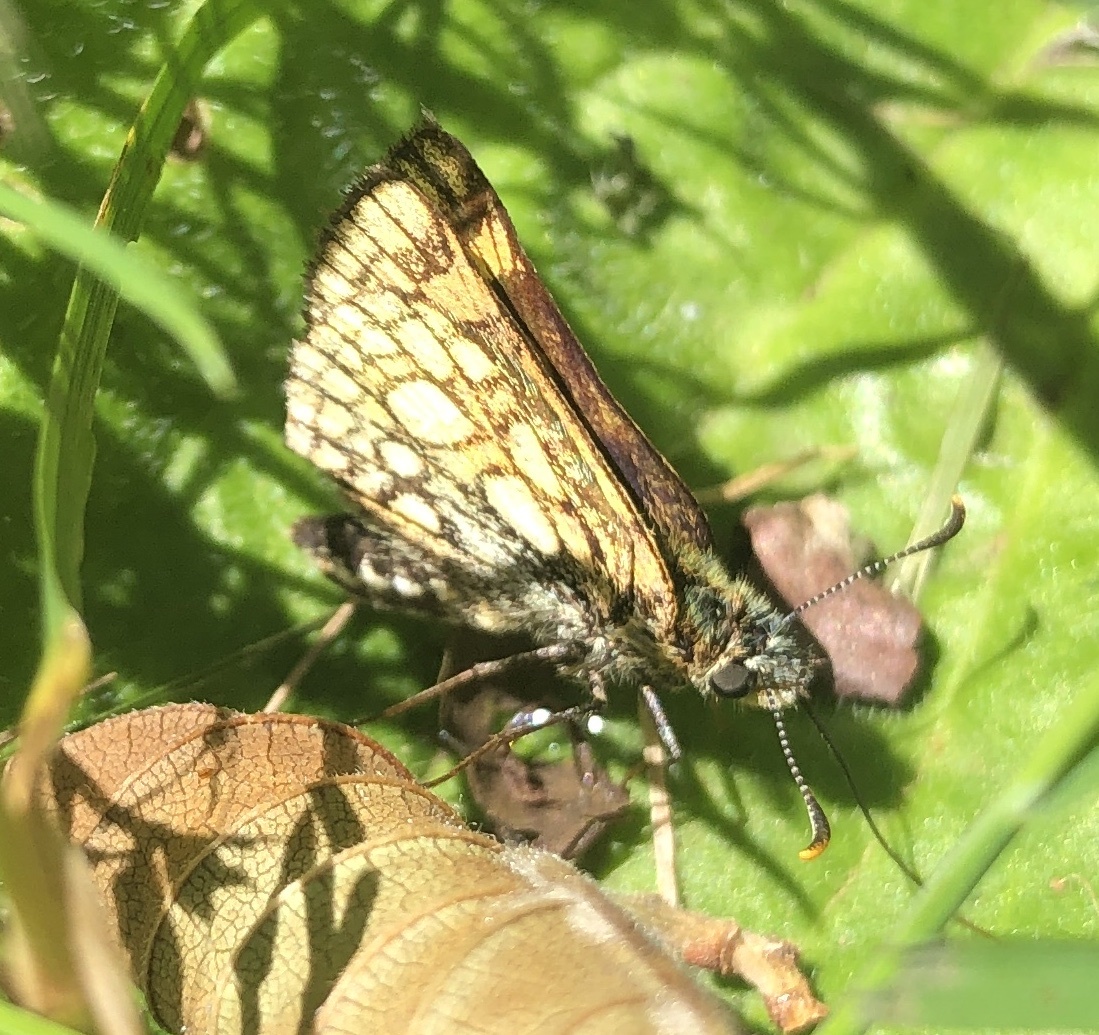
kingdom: Animalia
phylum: Arthropoda
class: Insecta
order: Lepidoptera
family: Hesperiidae
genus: Carterocephalus
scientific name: Carterocephalus palaemon
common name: Chequered skipper
